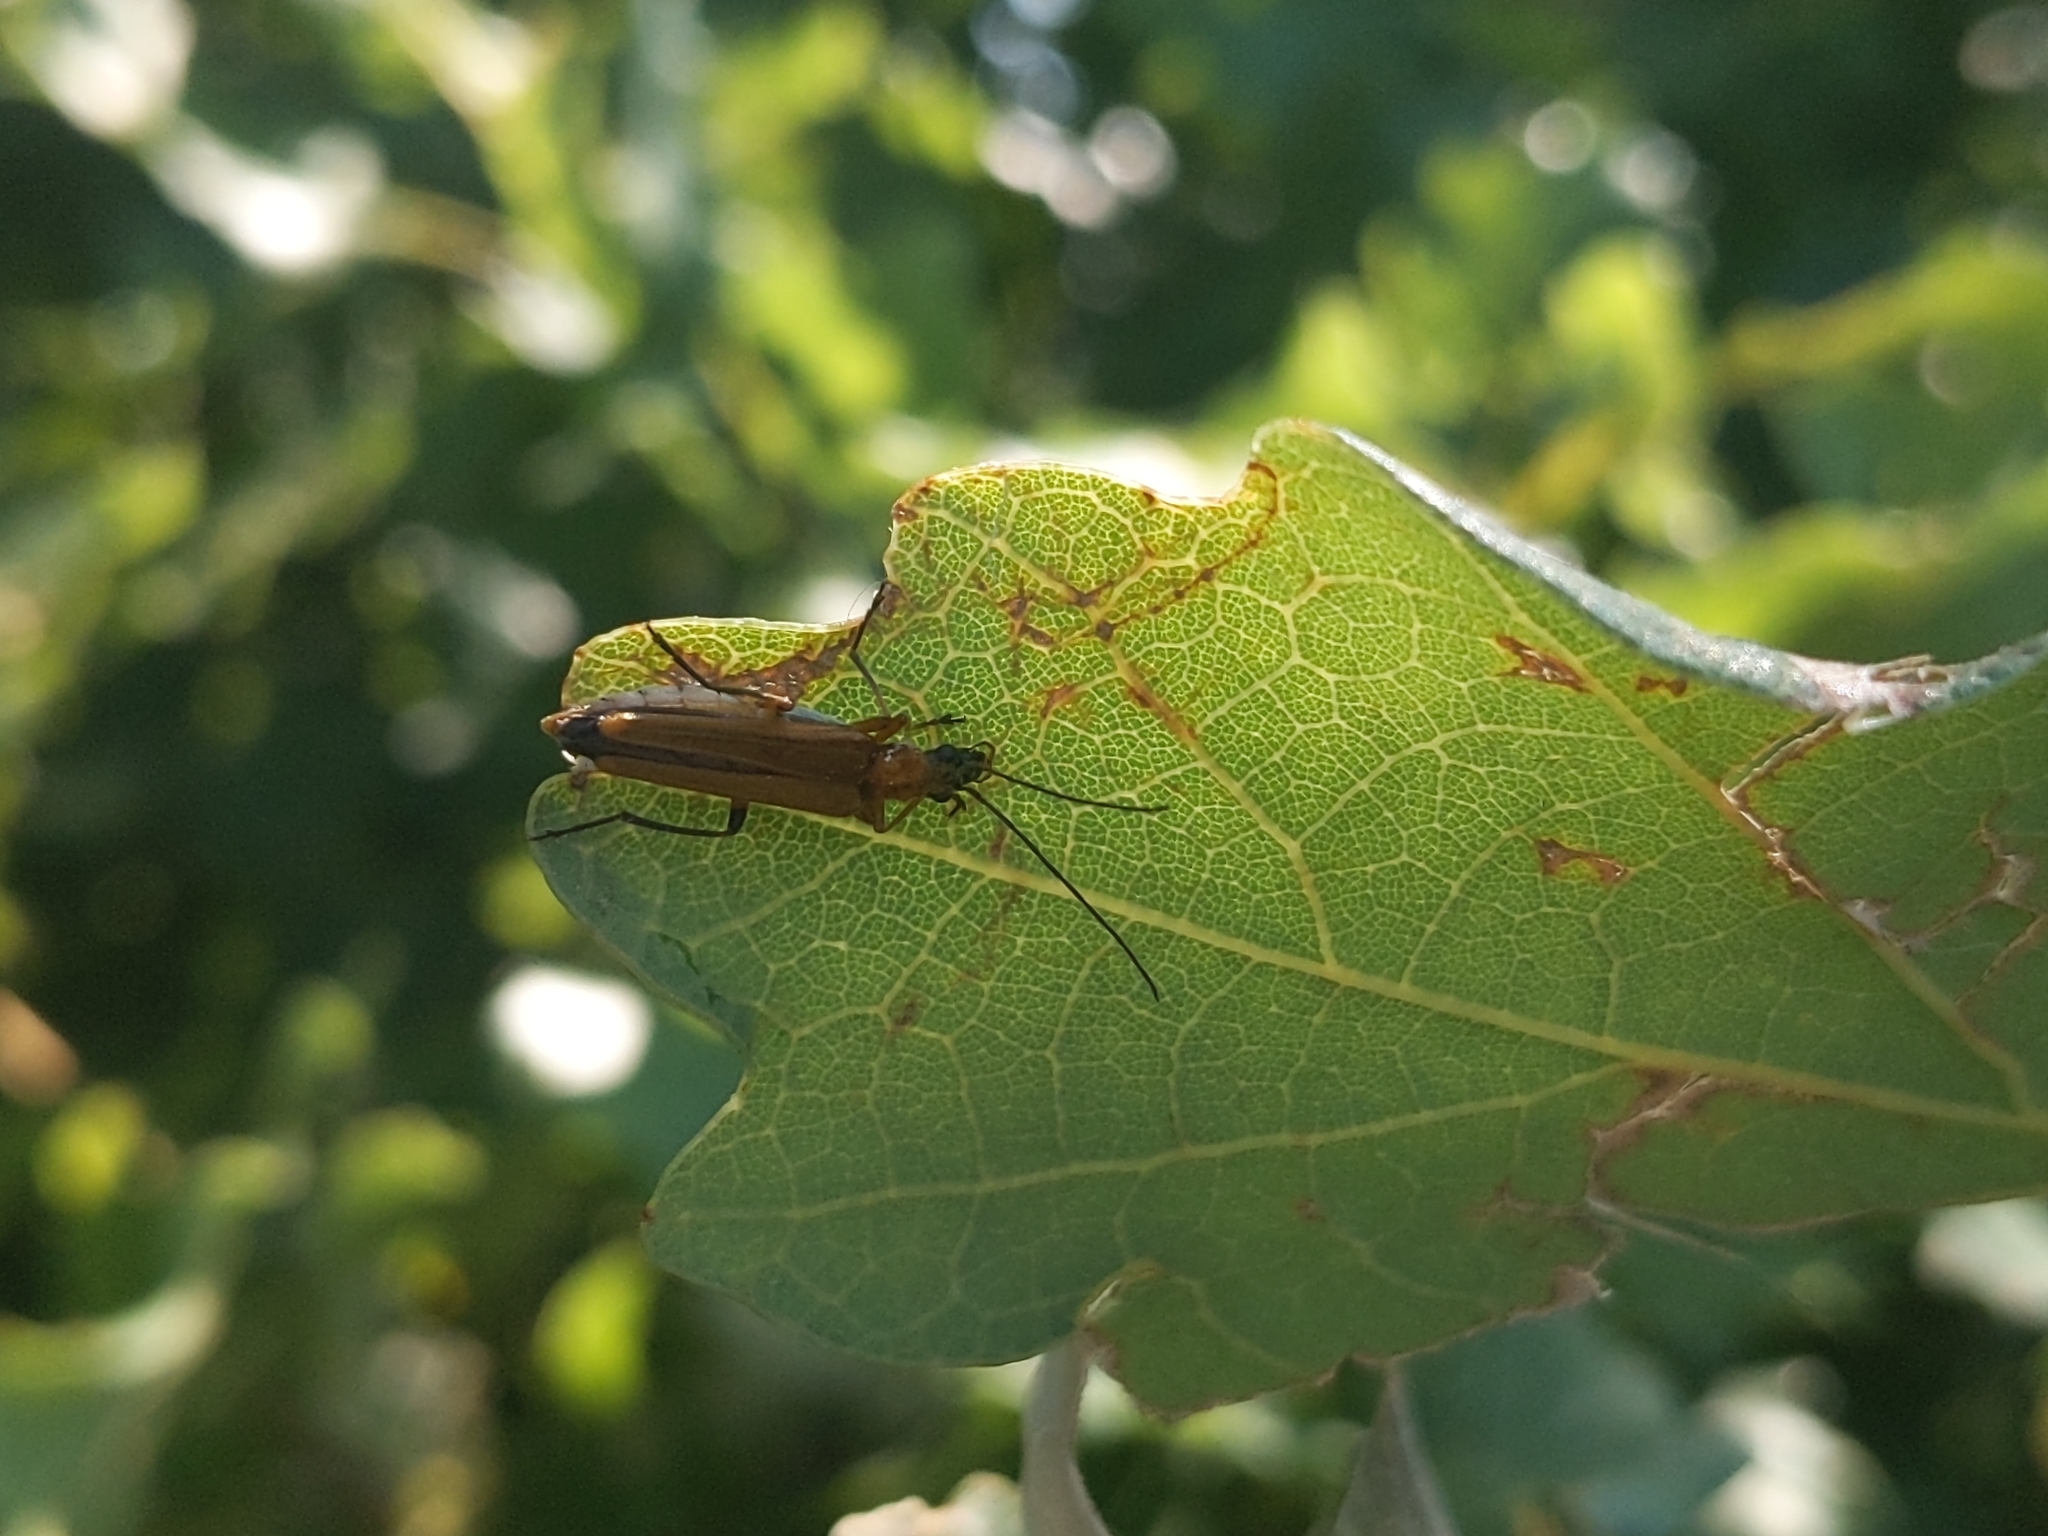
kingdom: Animalia
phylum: Arthropoda
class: Insecta
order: Coleoptera
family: Oedemeridae
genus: Oedemera
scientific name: Oedemera podagrariae
